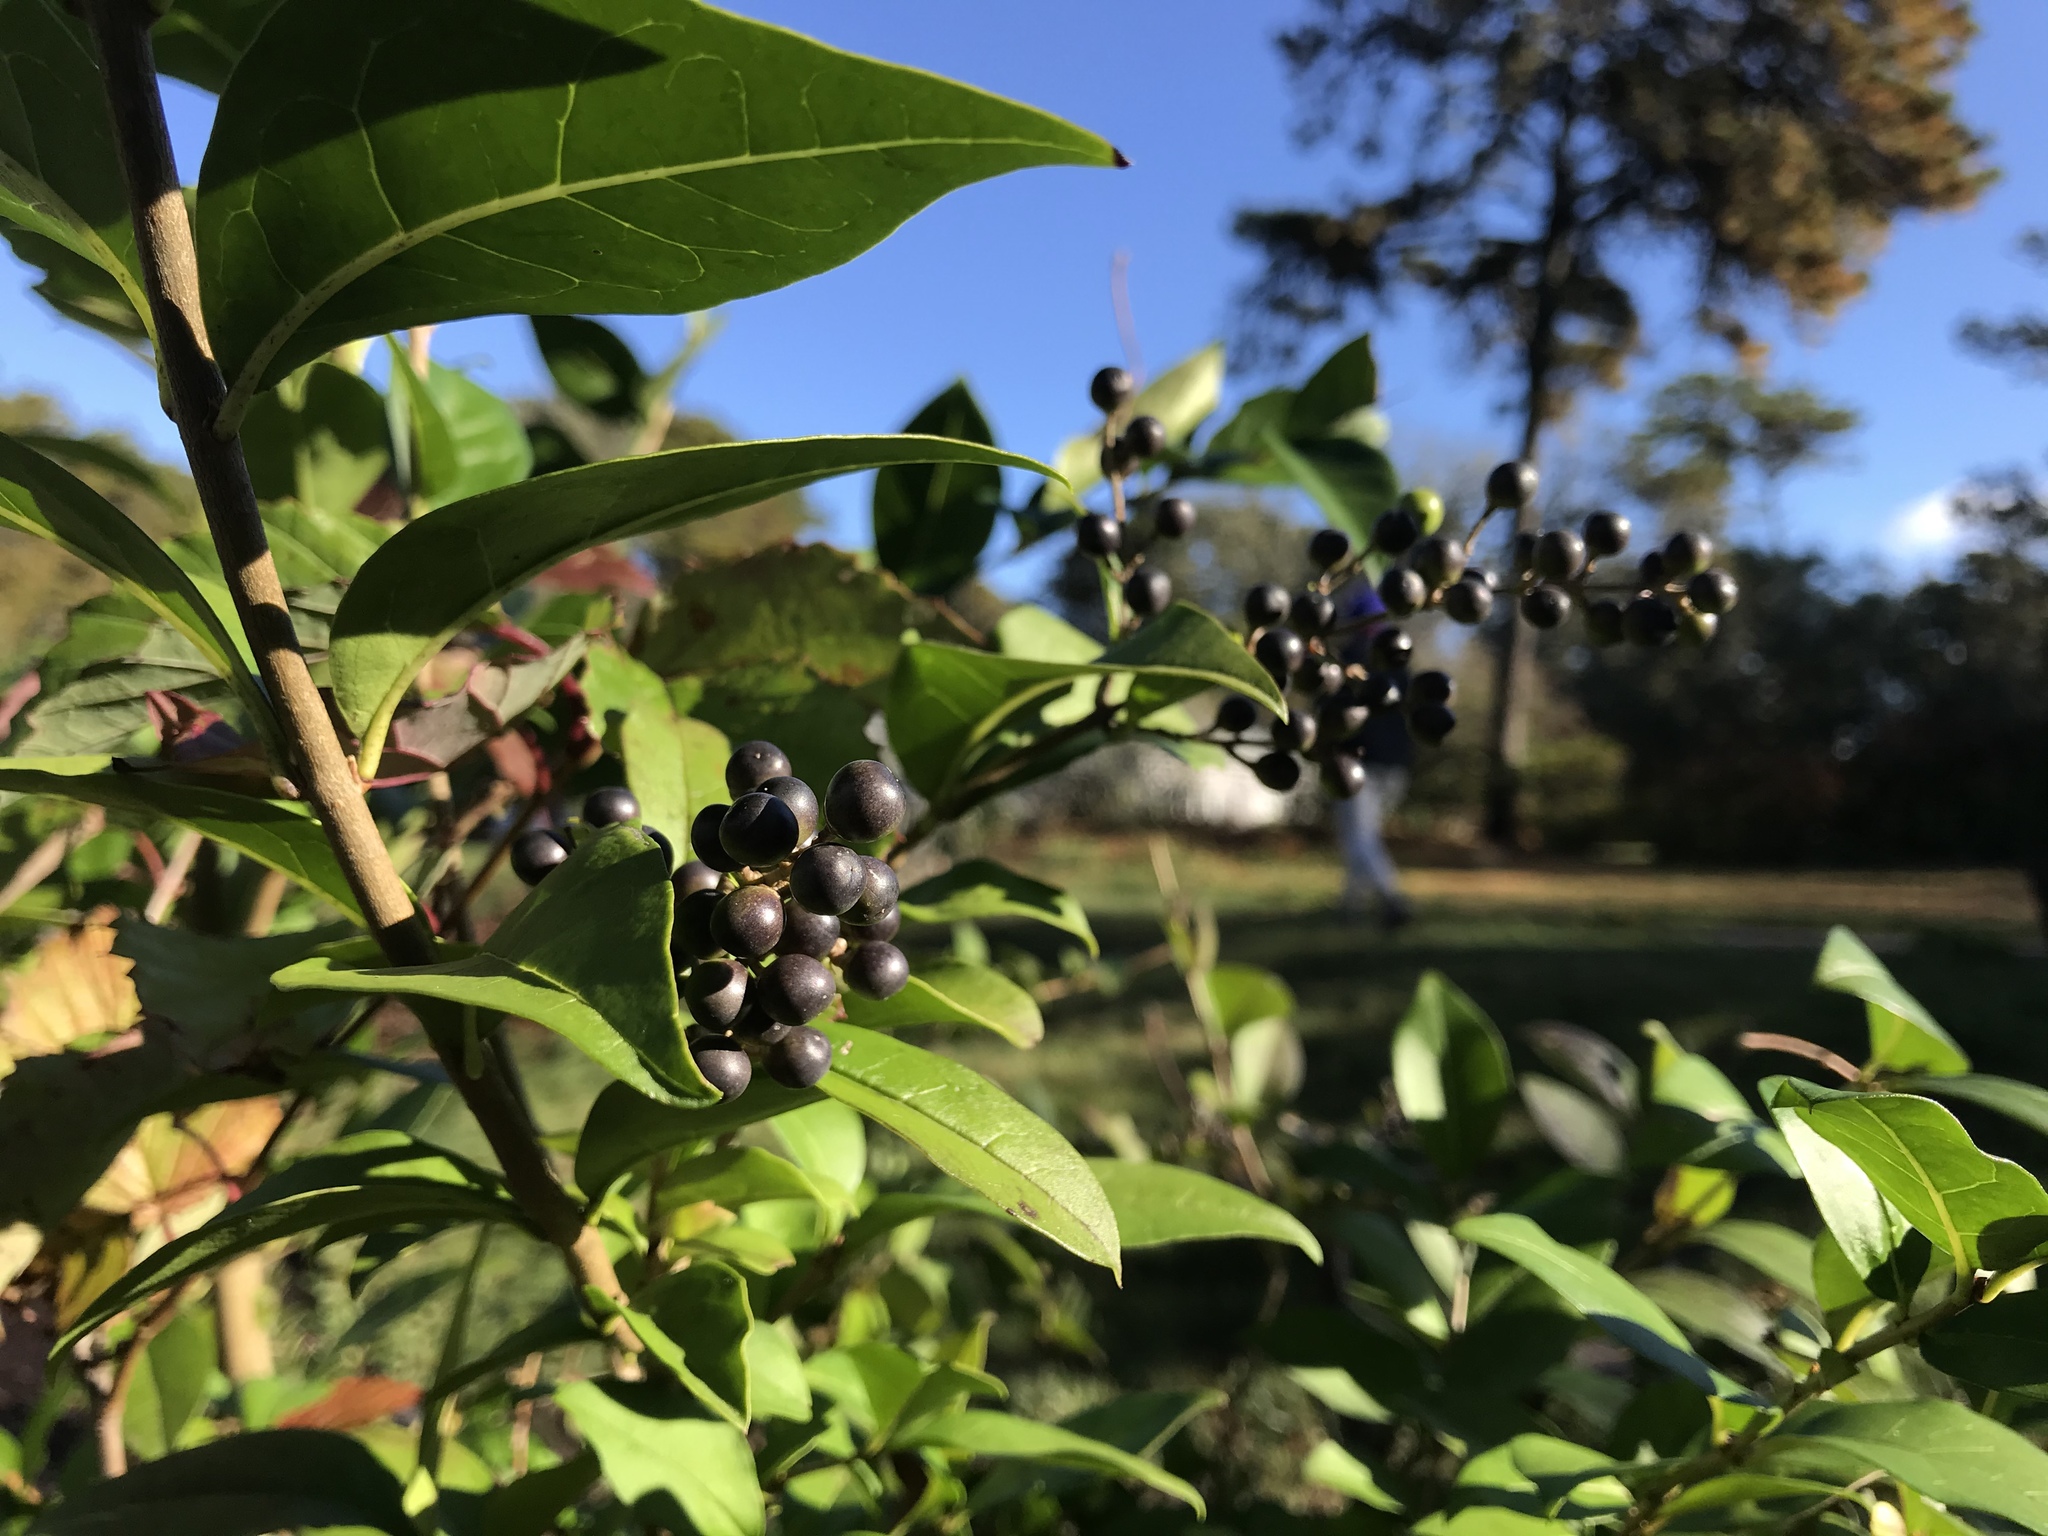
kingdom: Plantae
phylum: Tracheophyta
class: Magnoliopsida
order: Lamiales
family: Oleaceae
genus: Ligustrum
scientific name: Ligustrum obtusifolium
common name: Border privet
